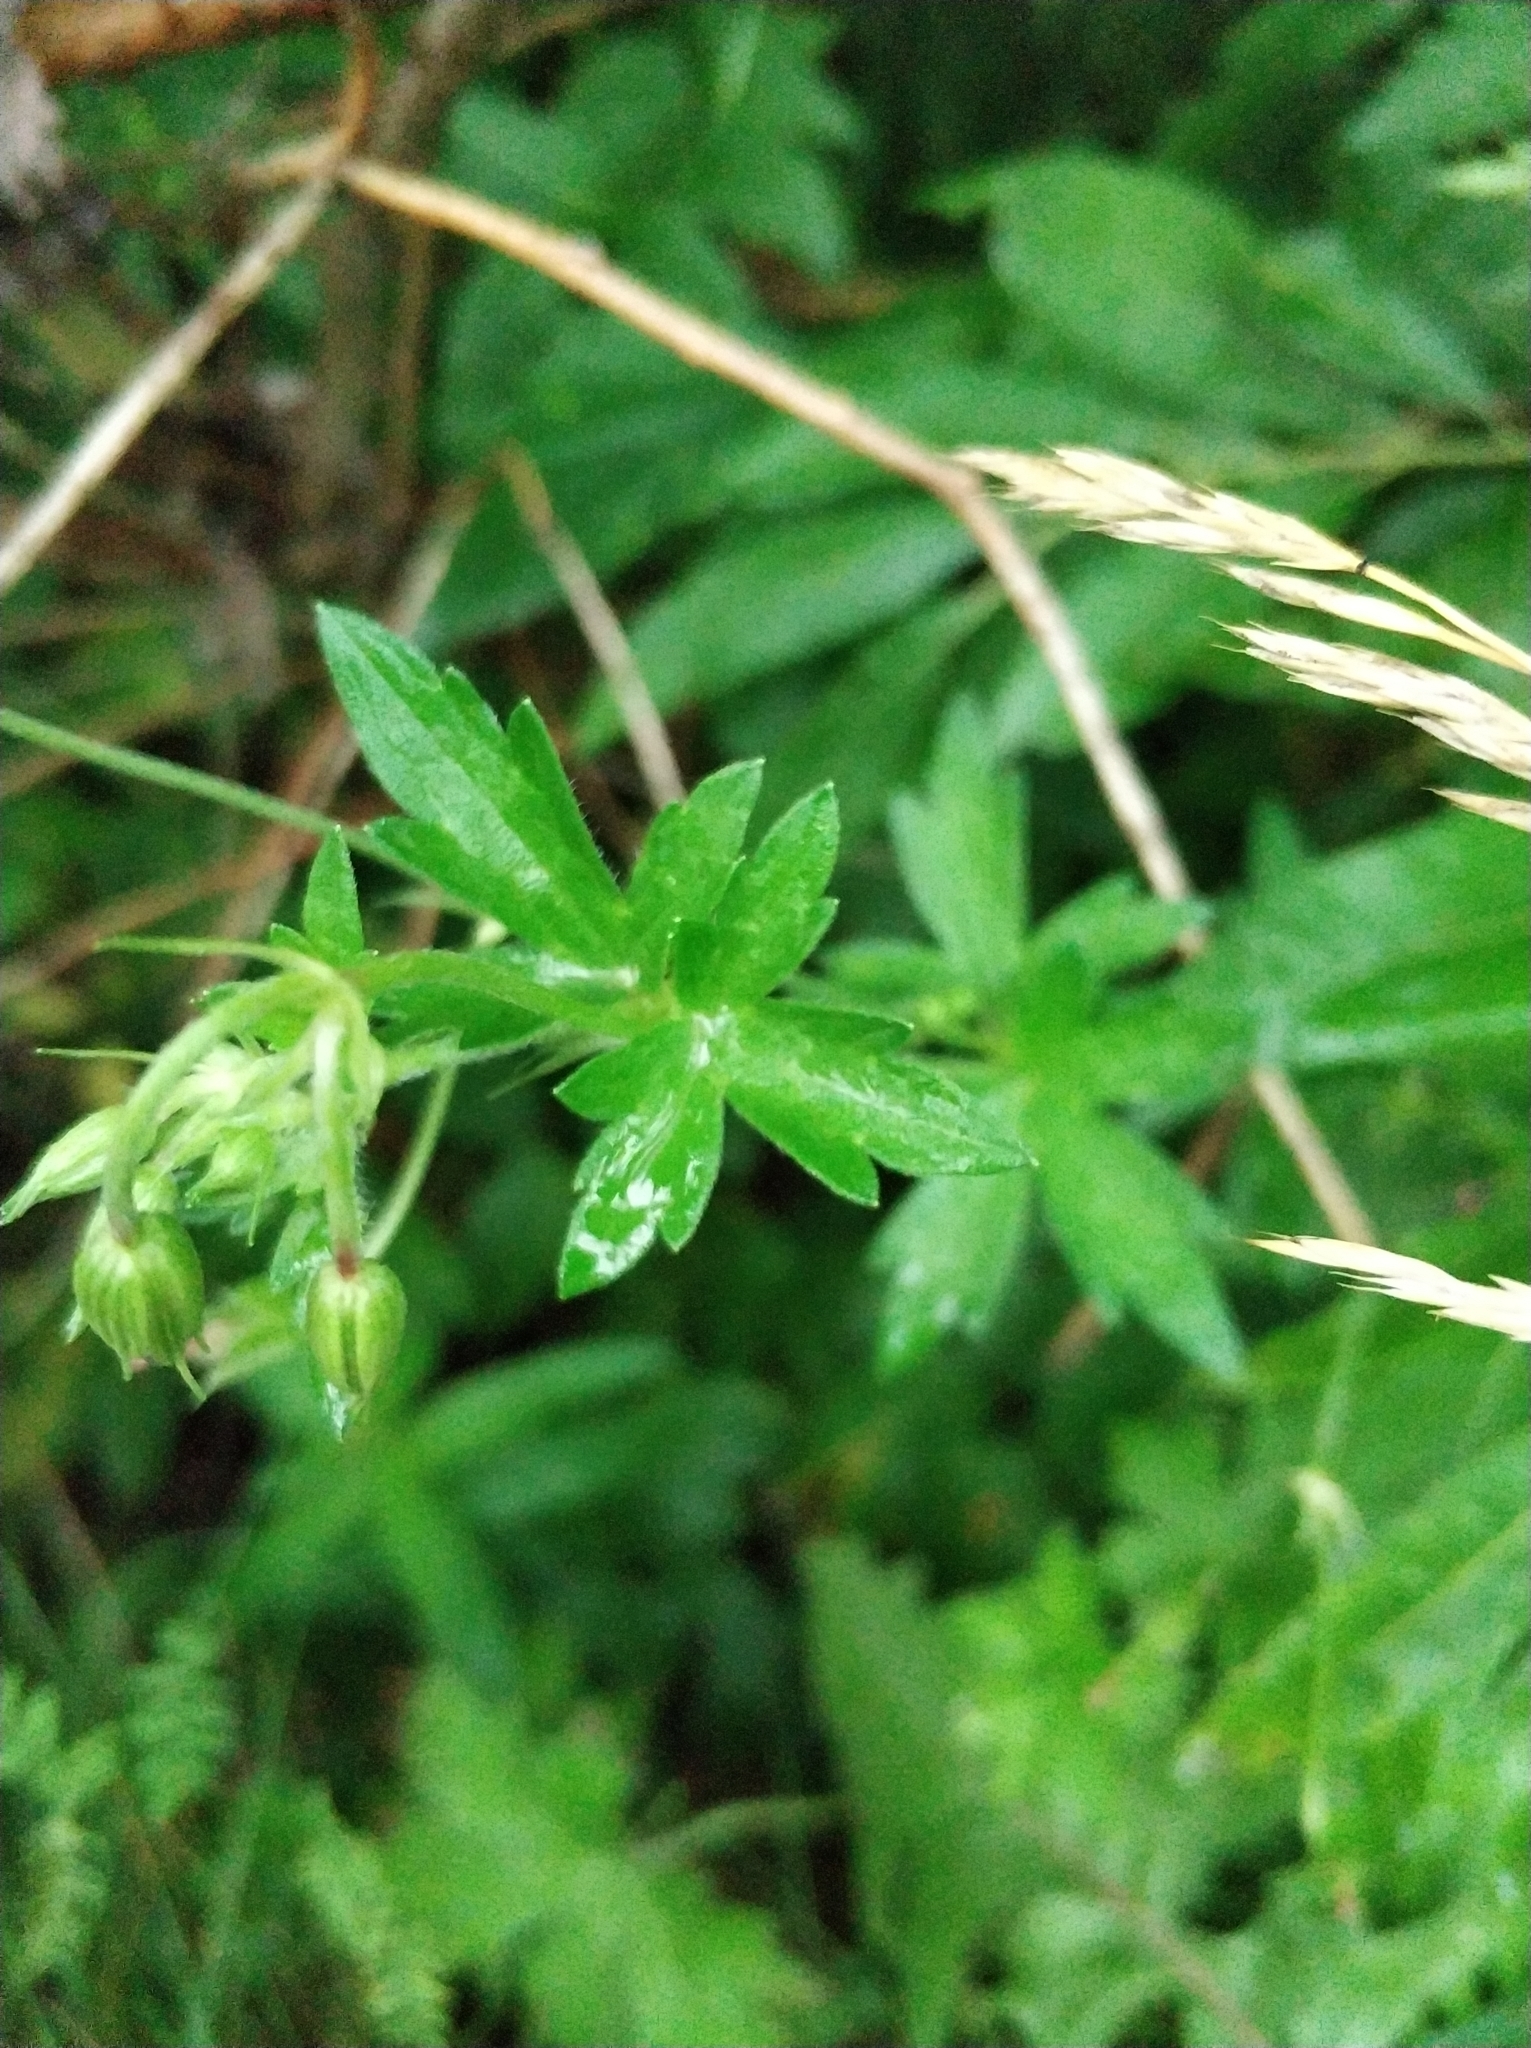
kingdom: Plantae
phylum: Tracheophyta
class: Magnoliopsida
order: Geraniales
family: Geraniaceae
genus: Geranium
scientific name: Geranium palustre
